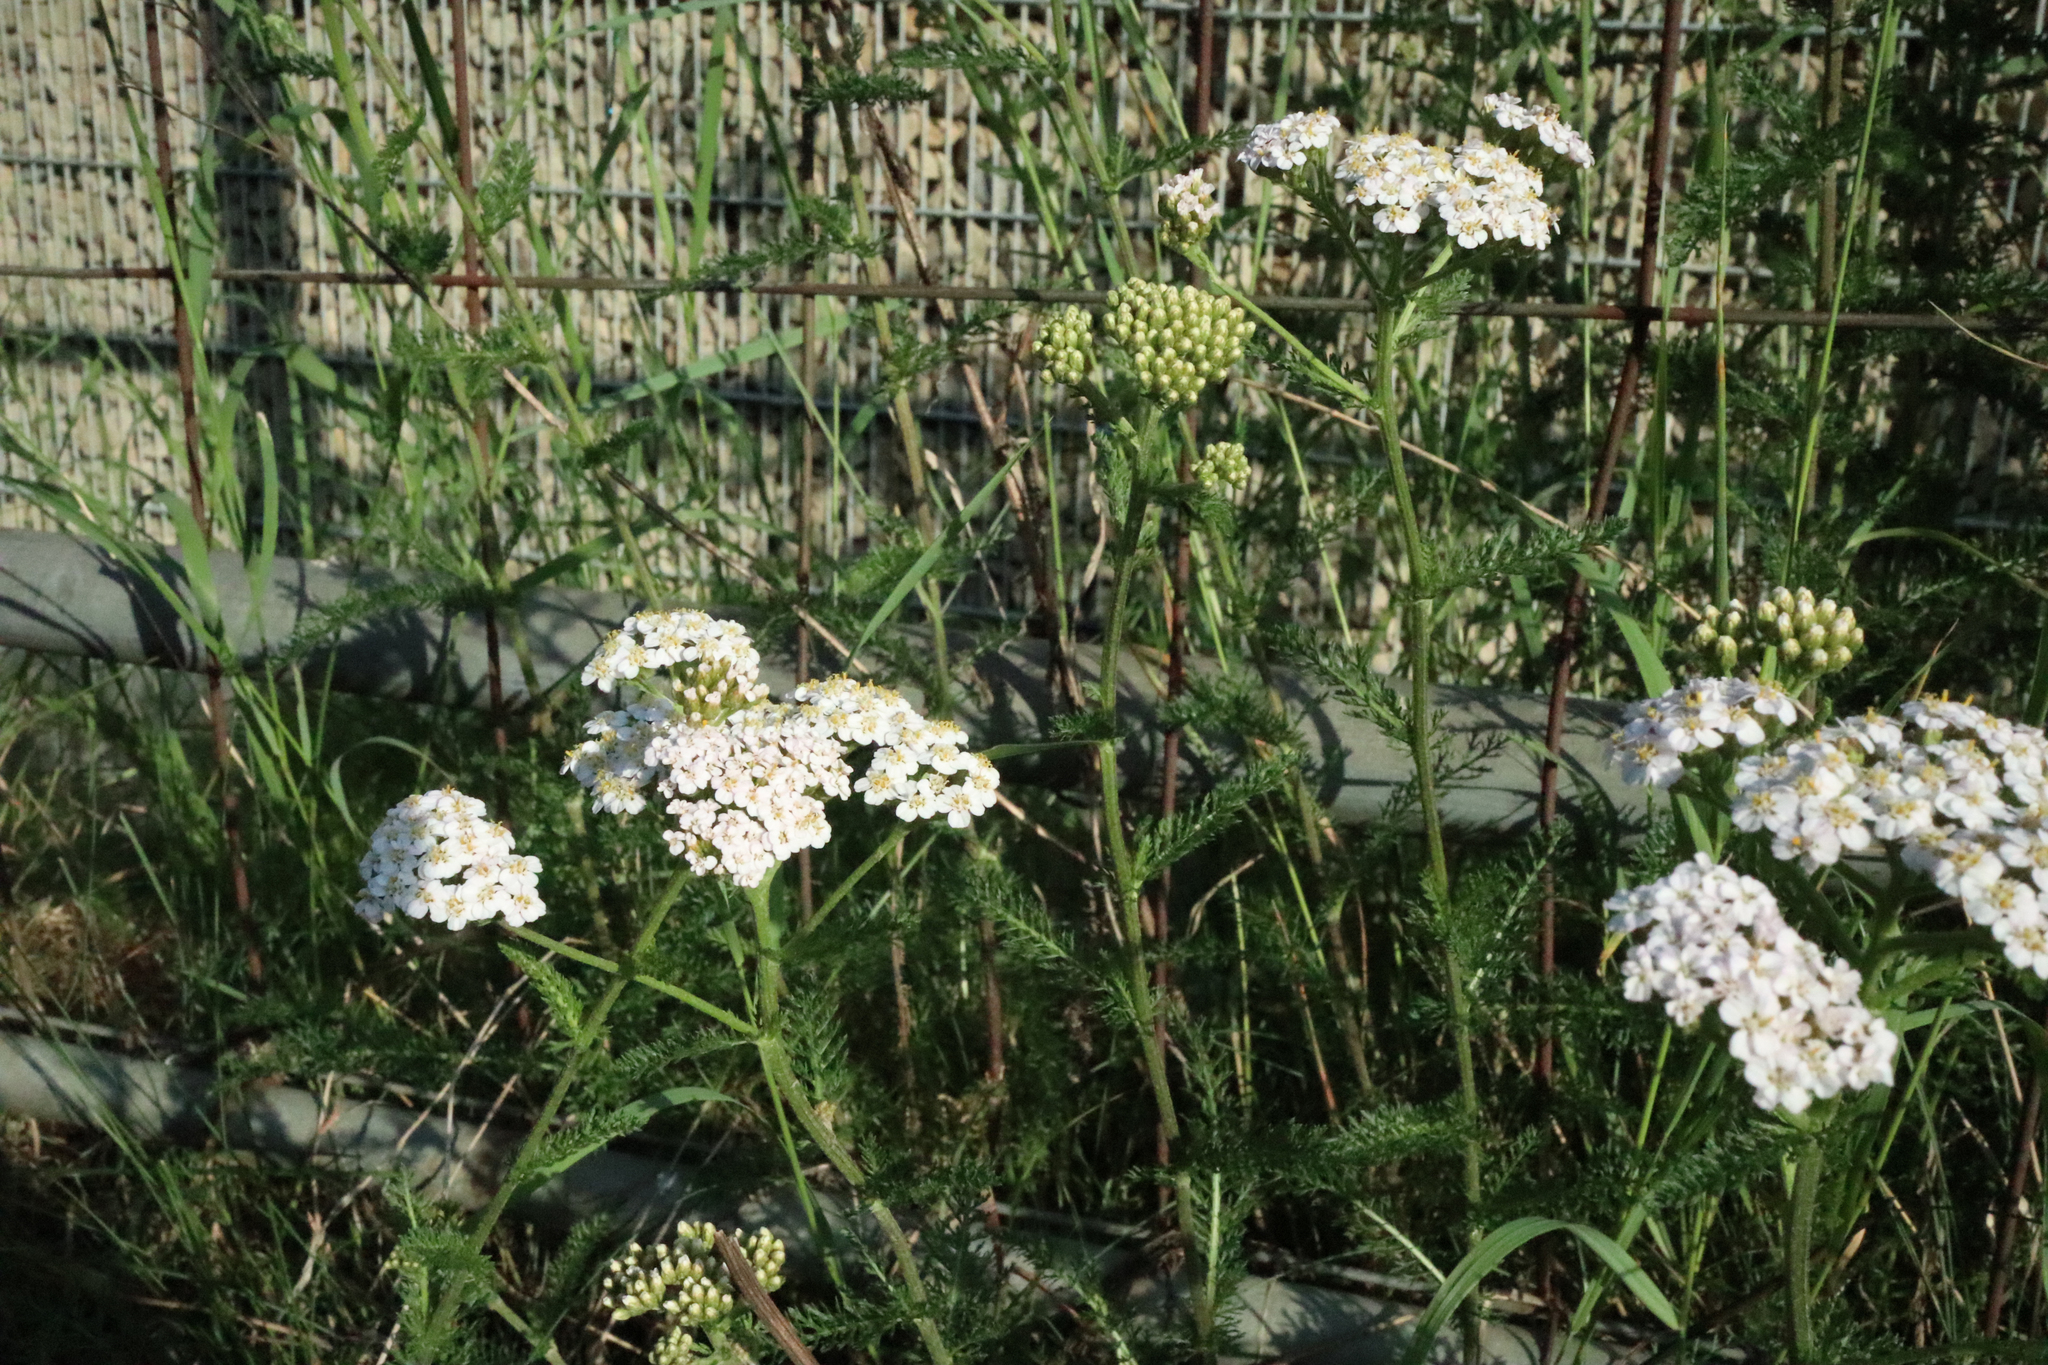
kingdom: Plantae
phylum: Tracheophyta
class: Magnoliopsida
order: Asterales
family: Asteraceae
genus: Achillea
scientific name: Achillea millefolium
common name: Yarrow
